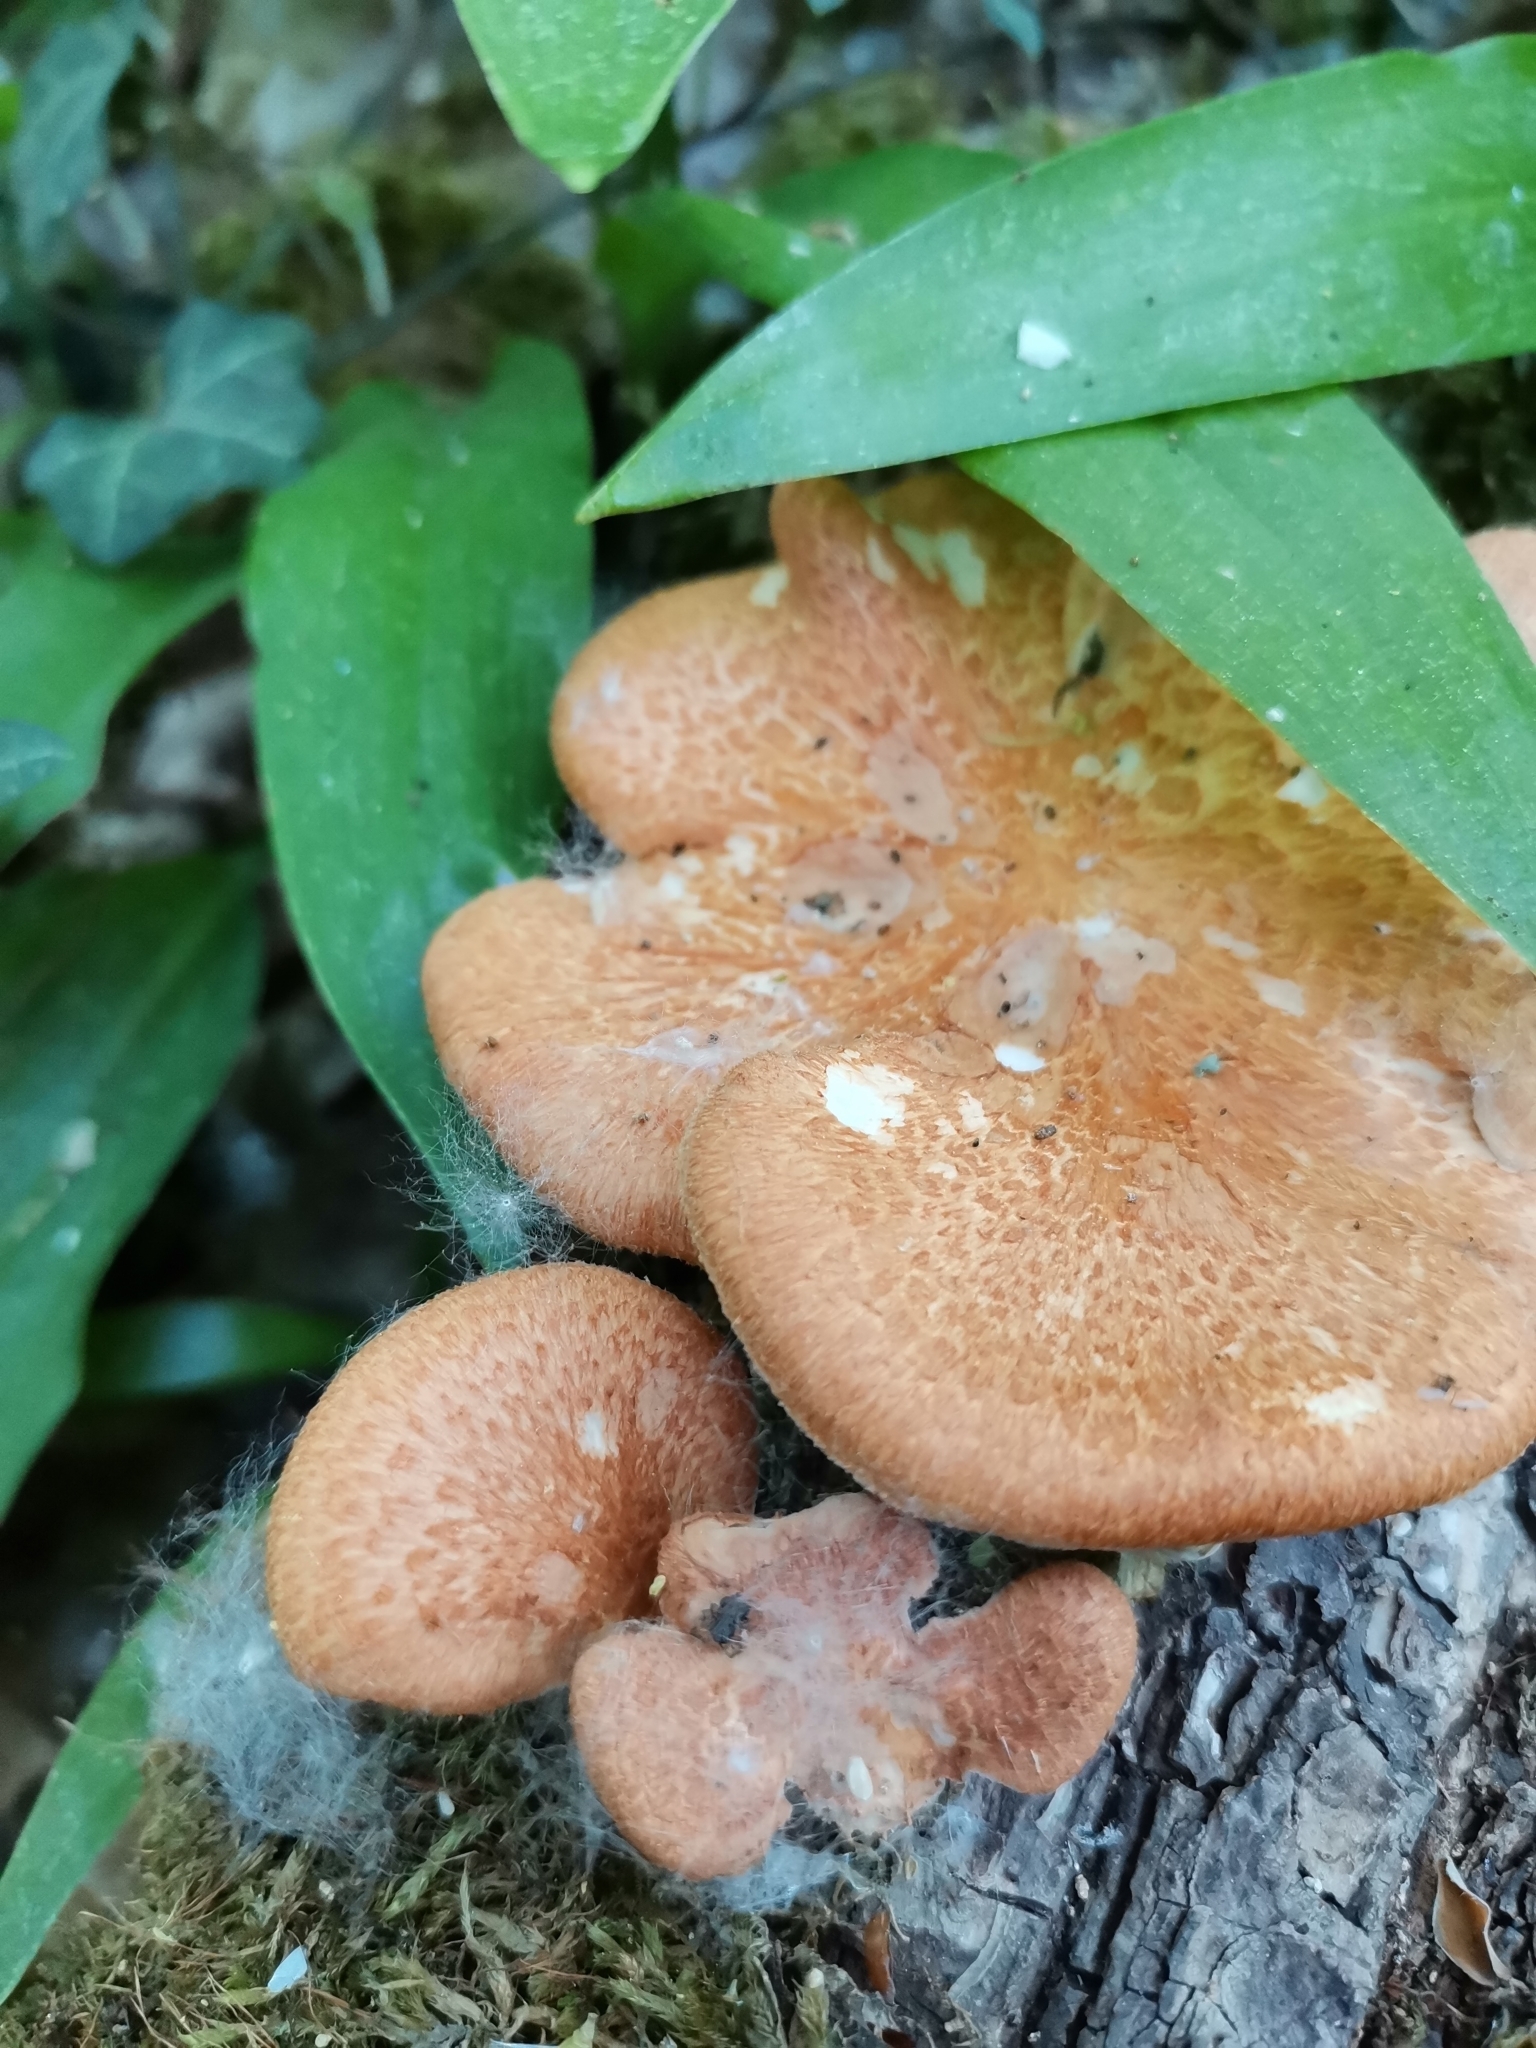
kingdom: Fungi
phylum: Basidiomycota
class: Agaricomycetes
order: Polyporales
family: Polyporaceae
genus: Neofavolus
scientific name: Neofavolus alveolaris
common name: Hexagonal-pored polypore
